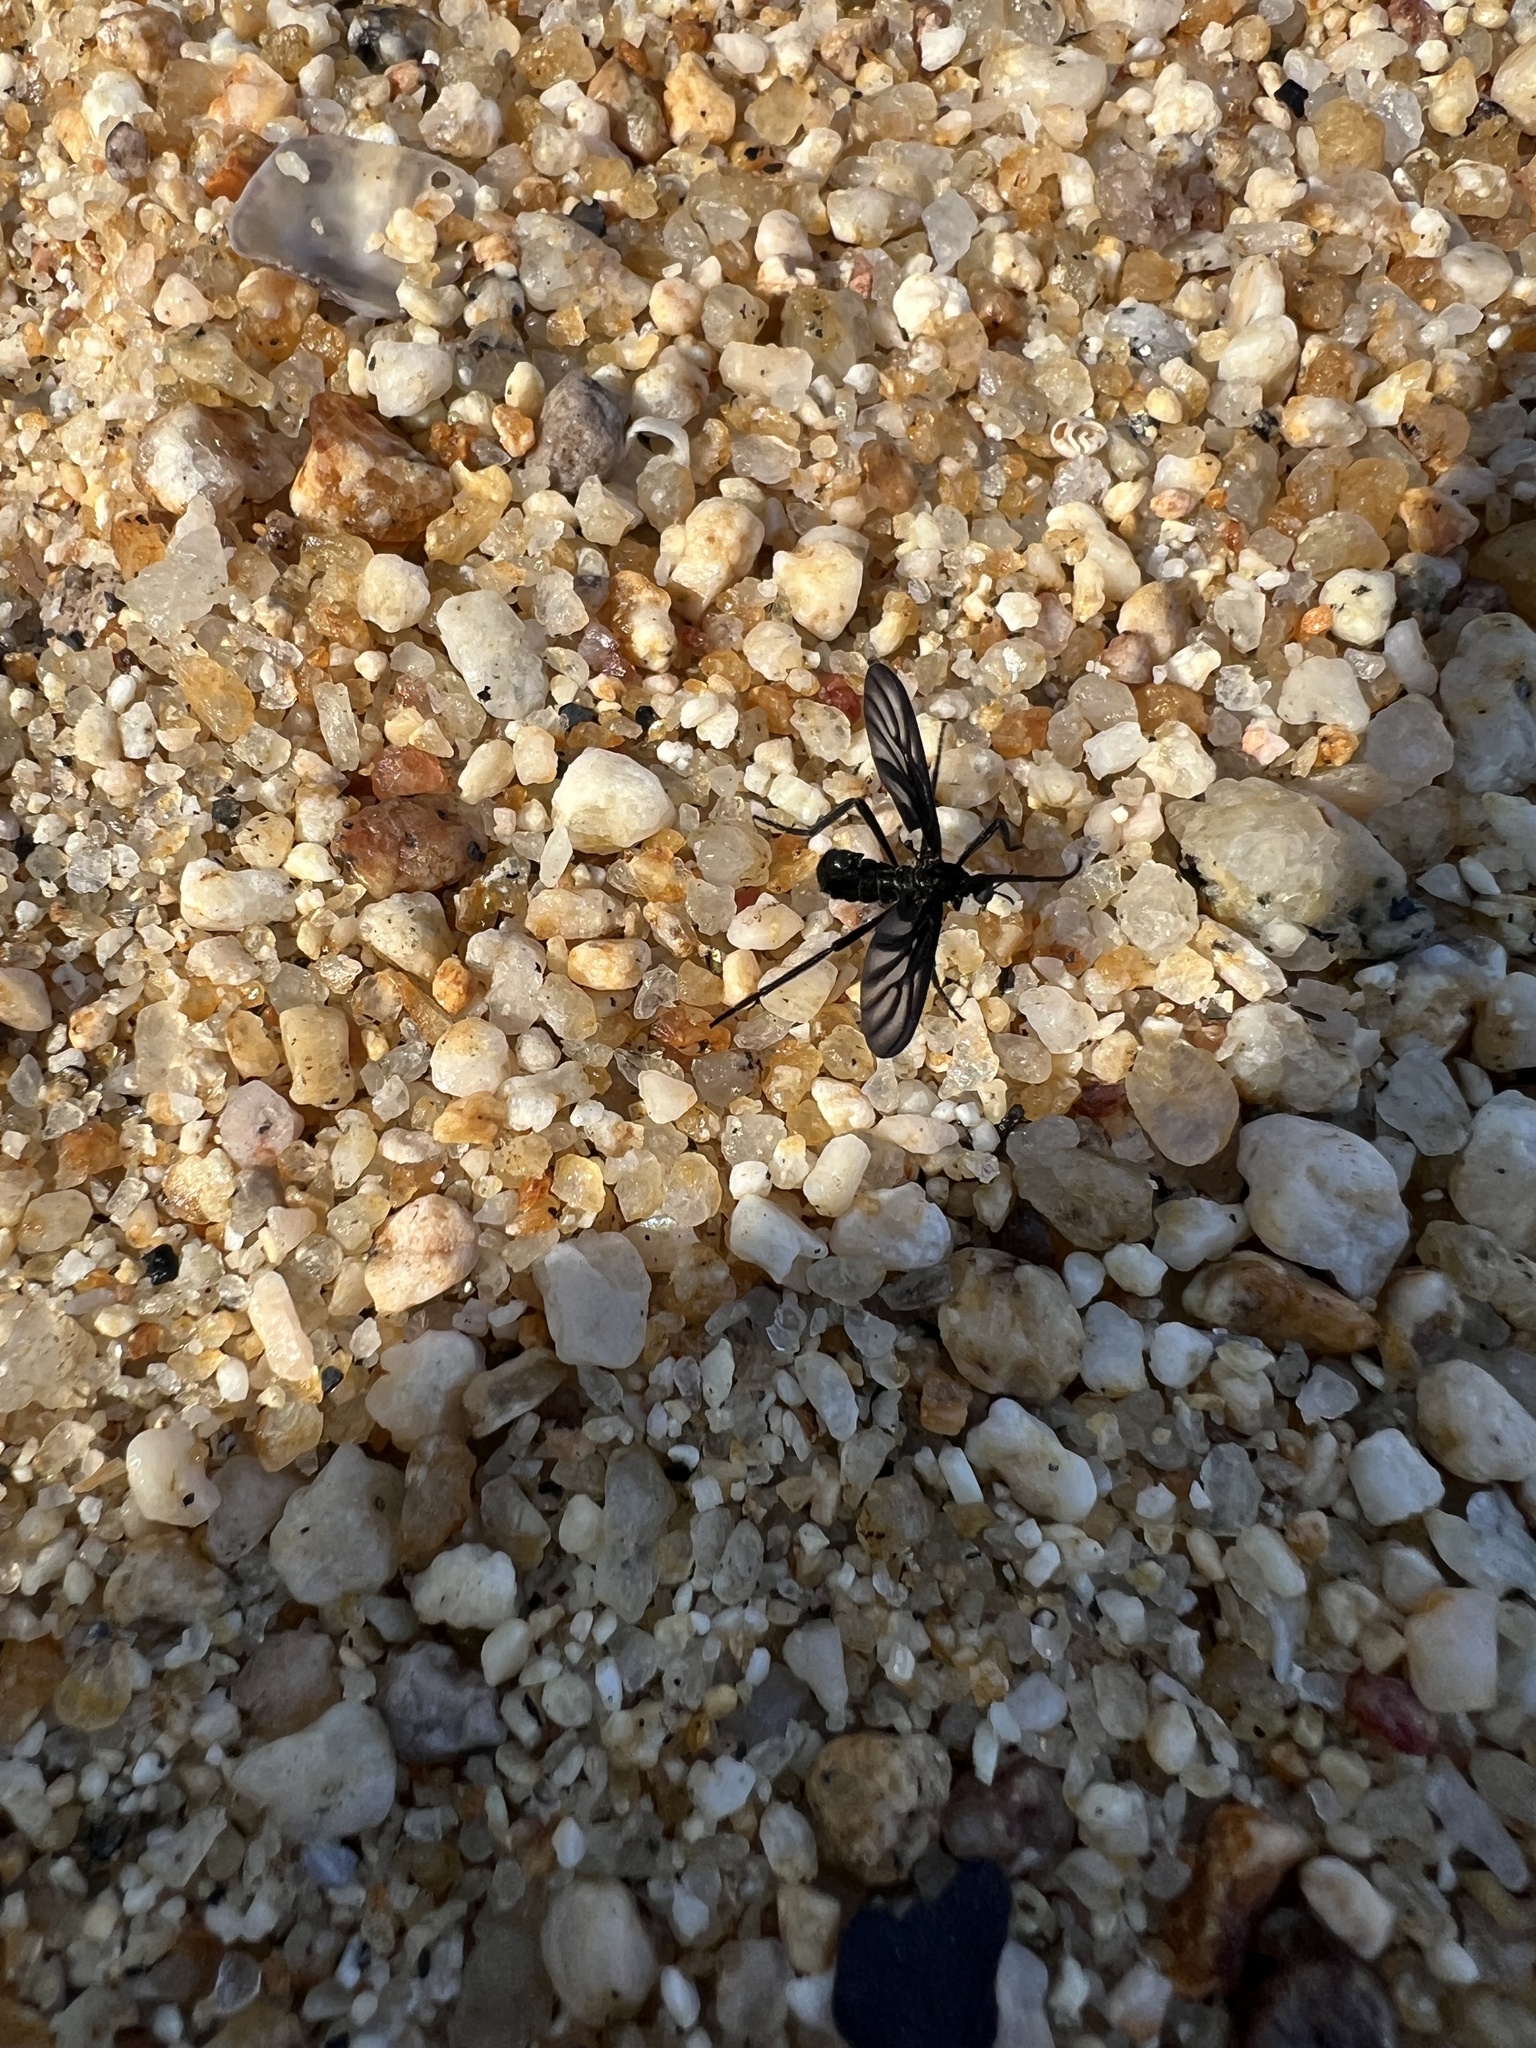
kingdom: Animalia
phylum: Arthropoda
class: Insecta
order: Diptera
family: Bibionidae
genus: Plecia
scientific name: Plecia plagiata
